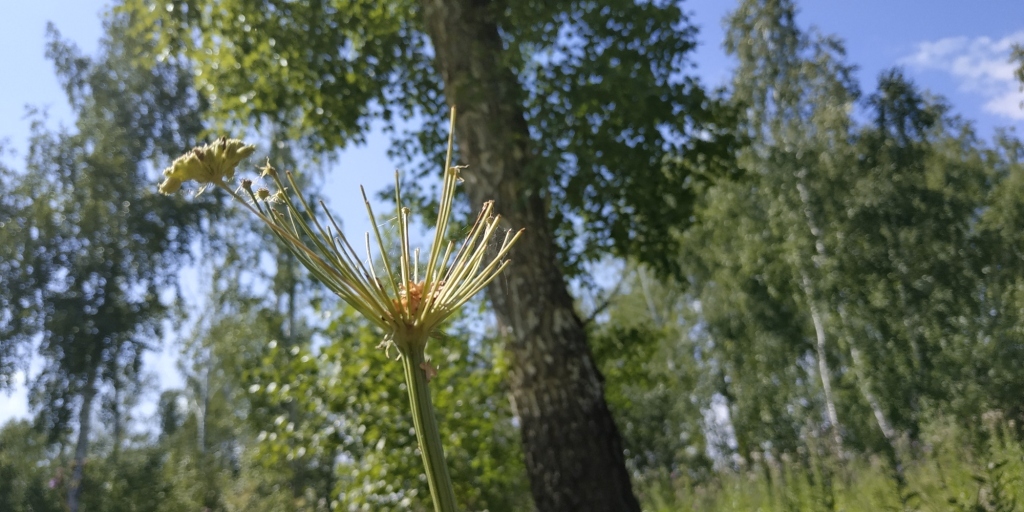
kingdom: Plantae
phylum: Tracheophyta
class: Magnoliopsida
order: Apiales
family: Apiaceae
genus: Seseli
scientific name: Seseli libanotis
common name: Mooncarrot
